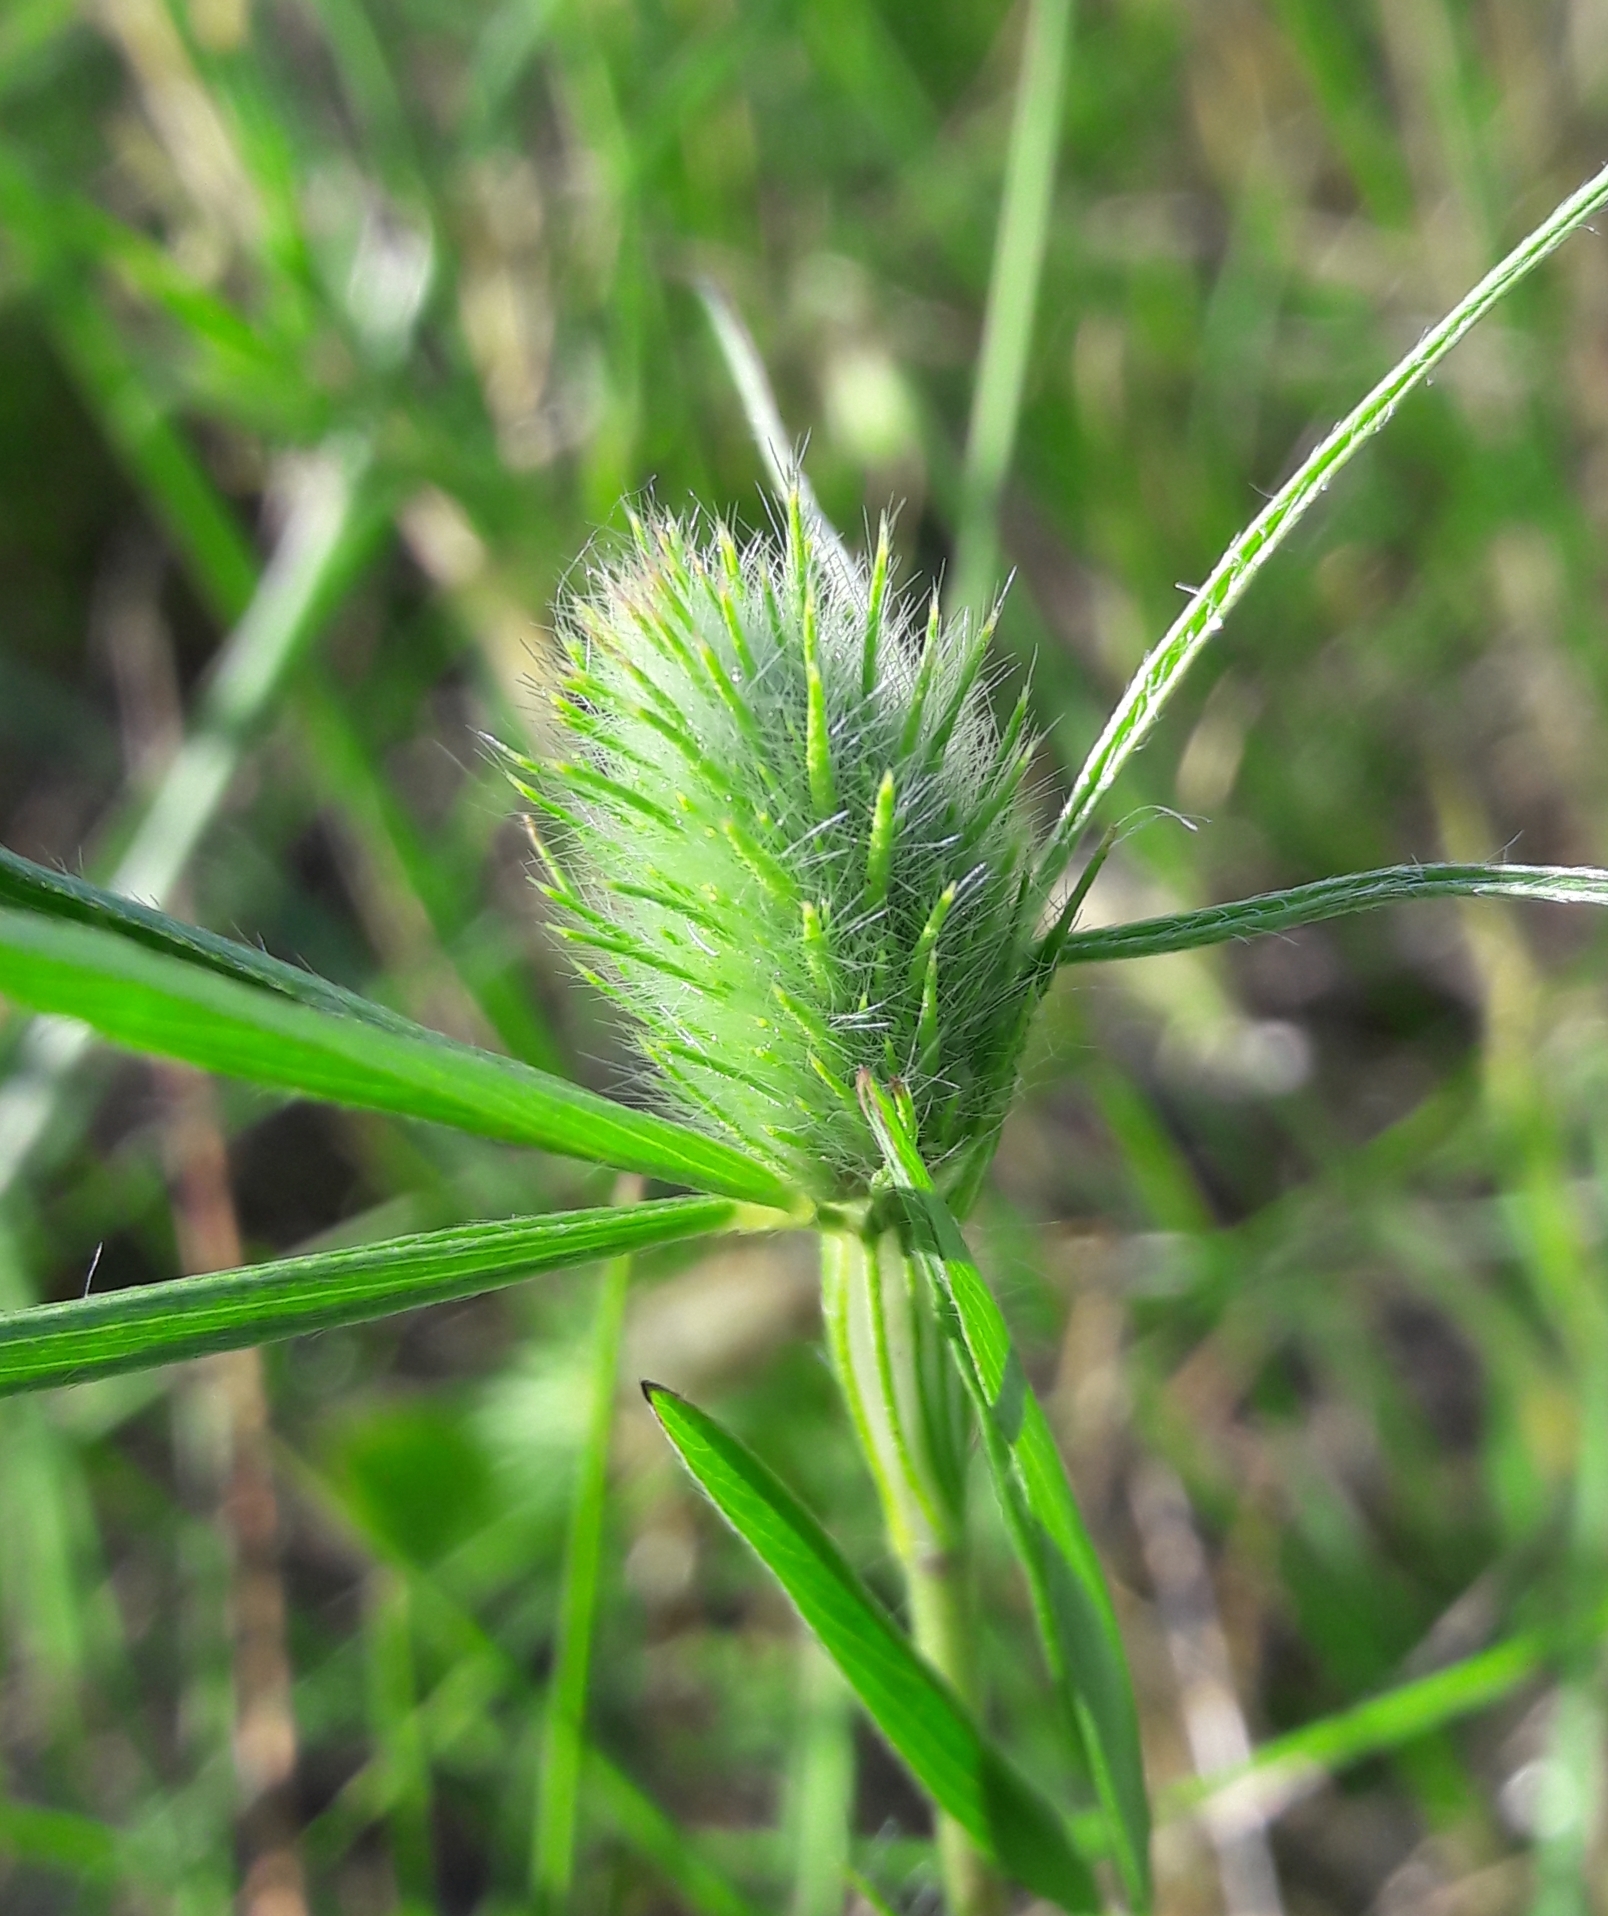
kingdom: Plantae
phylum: Tracheophyta
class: Magnoliopsida
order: Fabales
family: Fabaceae
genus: Trifolium
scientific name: Trifolium angustifolium
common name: Narrow clover
